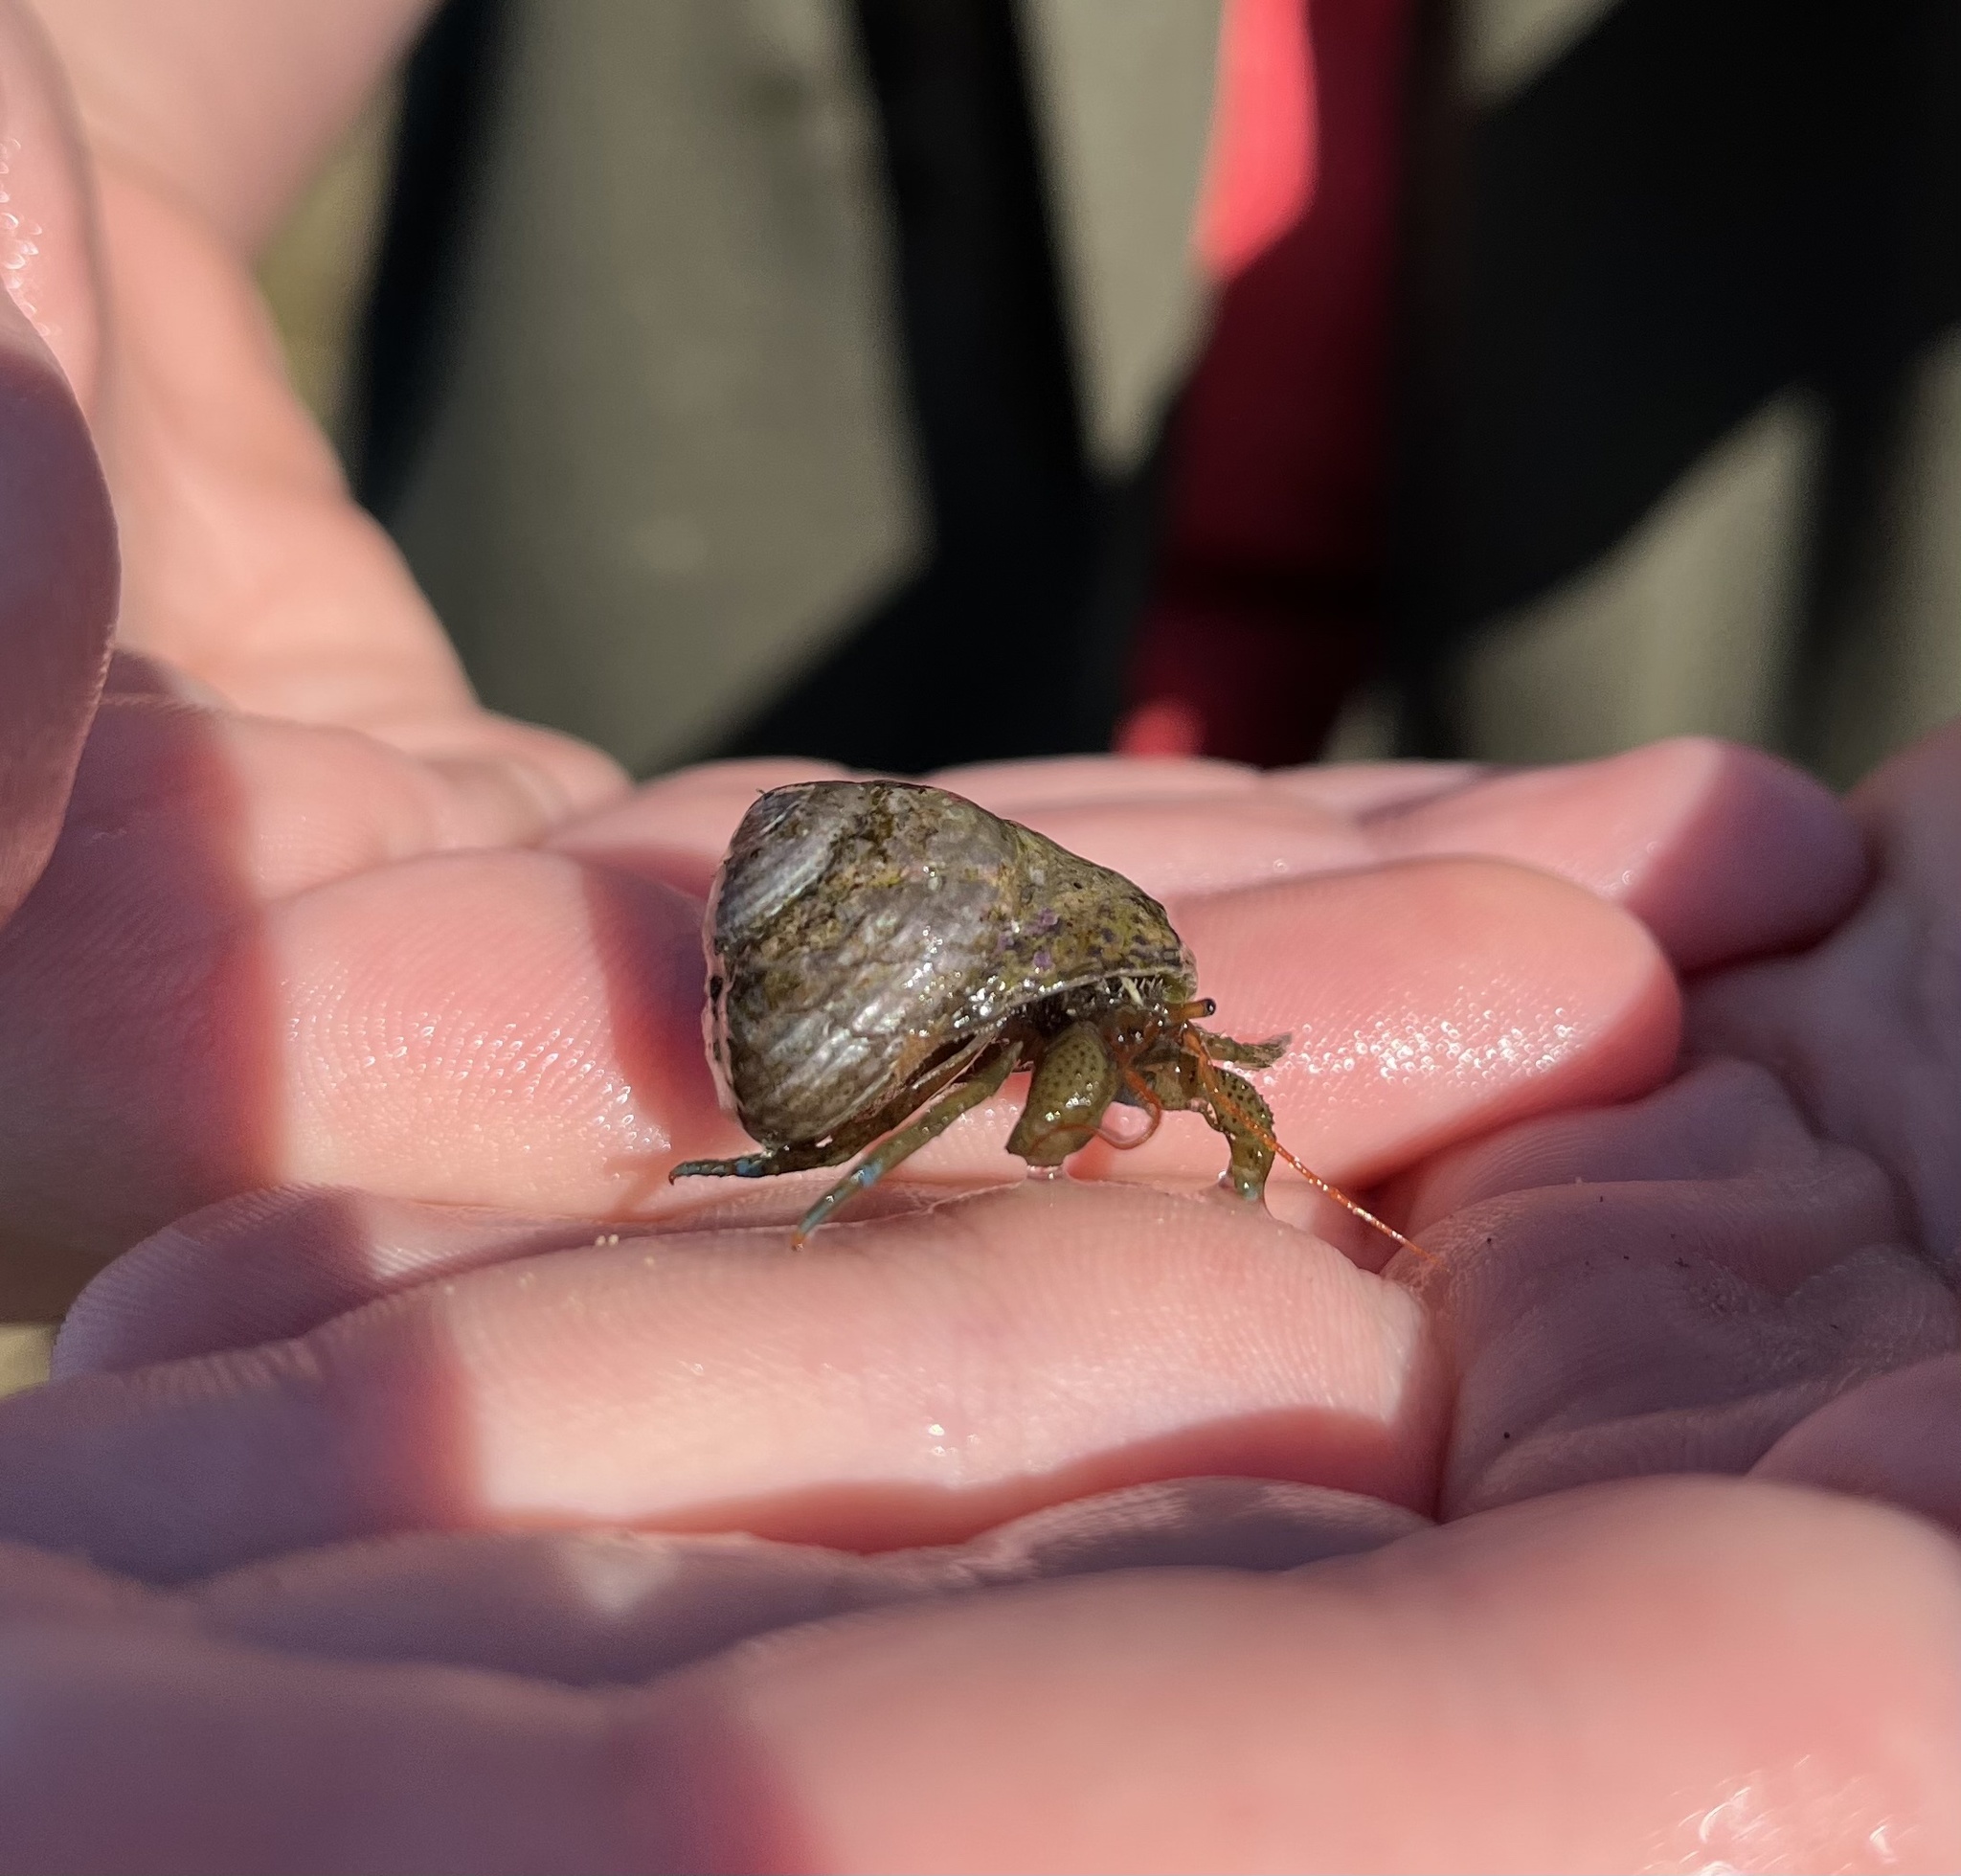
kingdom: Animalia
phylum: Arthropoda
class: Malacostraca
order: Decapoda
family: Paguridae
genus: Pagurus
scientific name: Pagurus samuelis
